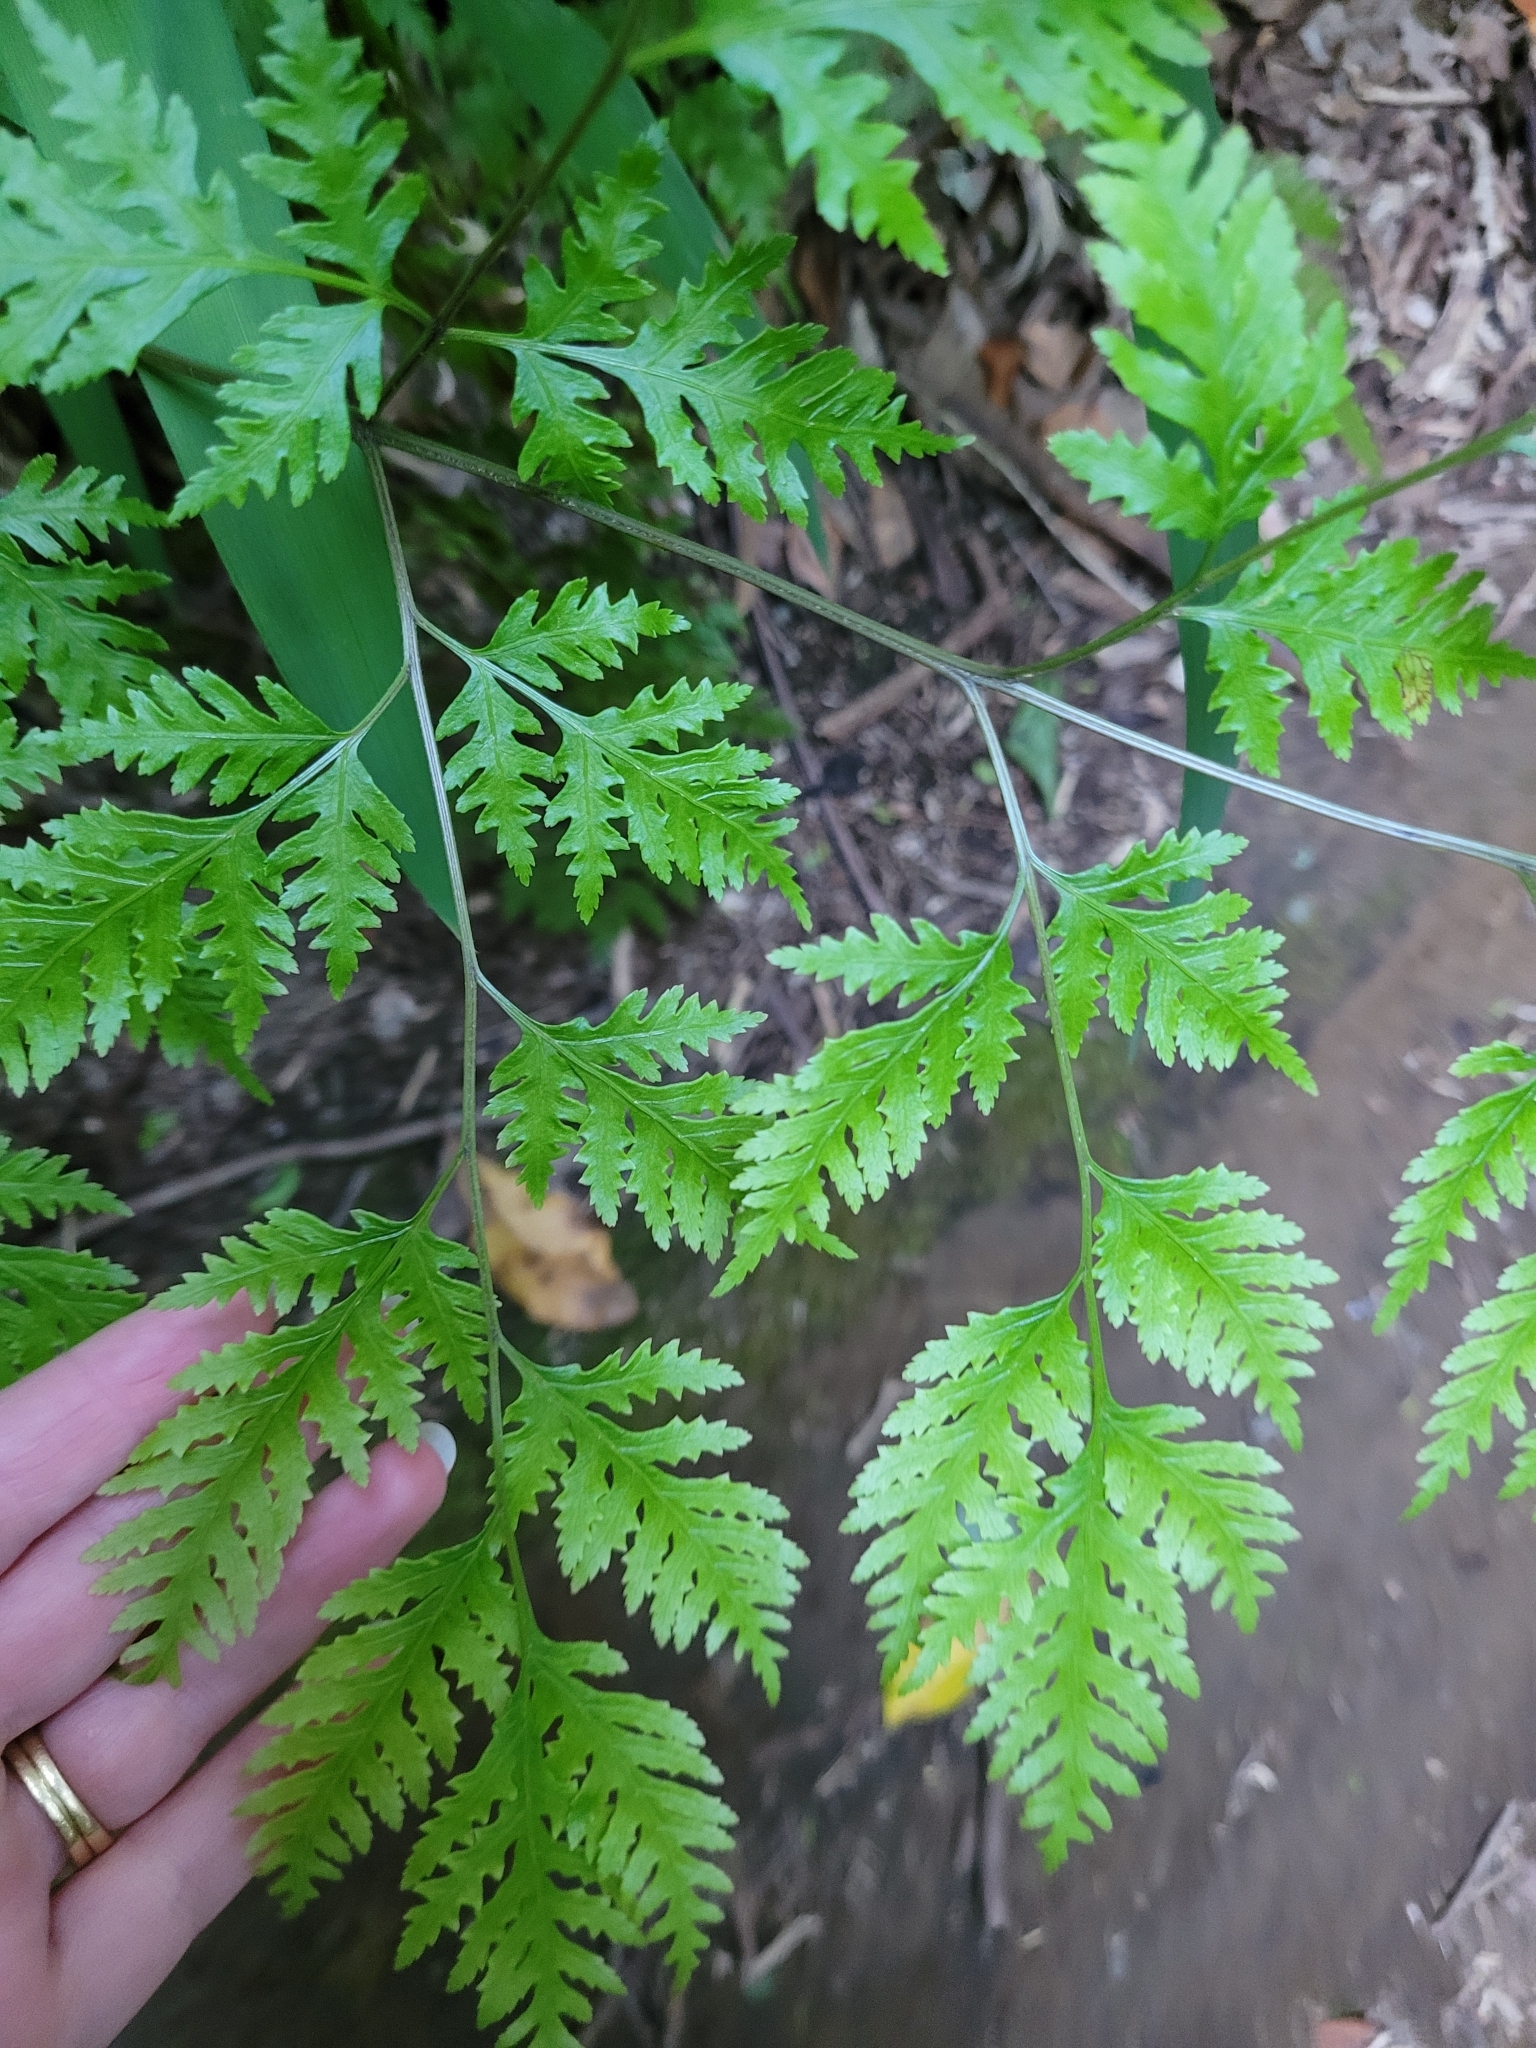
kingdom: Plantae
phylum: Tracheophyta
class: Polypodiopsida
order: Polypodiales
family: Pteridaceae
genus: Pteris
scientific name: Pteris macilenta
